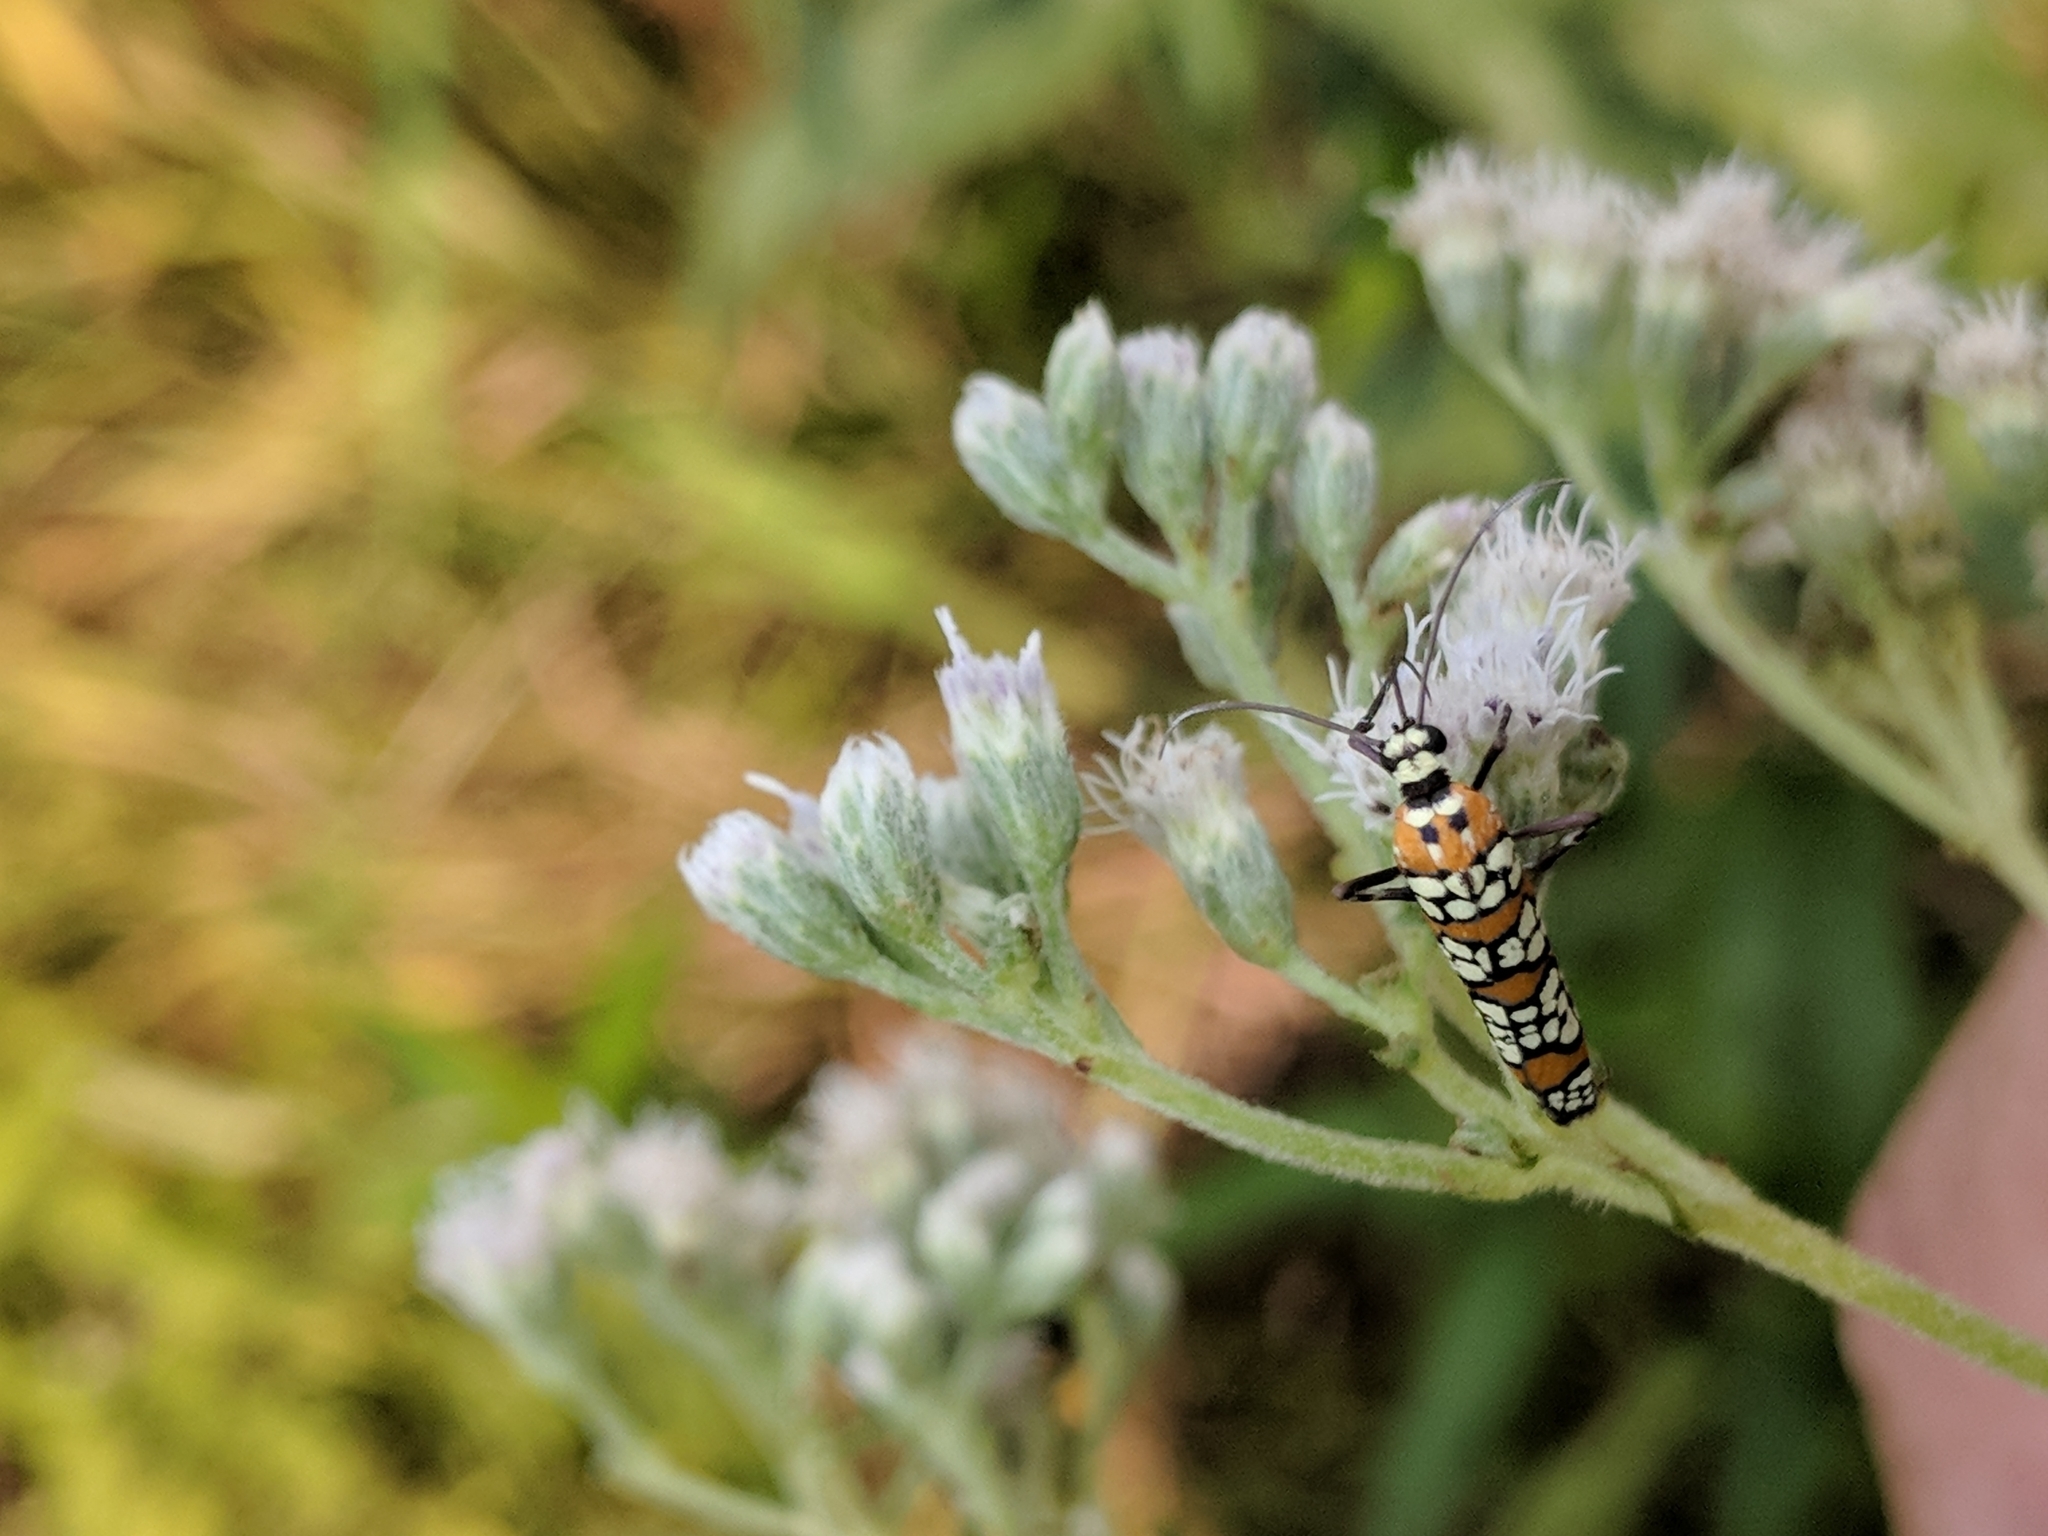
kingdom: Animalia
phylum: Arthropoda
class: Insecta
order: Lepidoptera
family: Attevidae
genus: Atteva
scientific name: Atteva punctella
